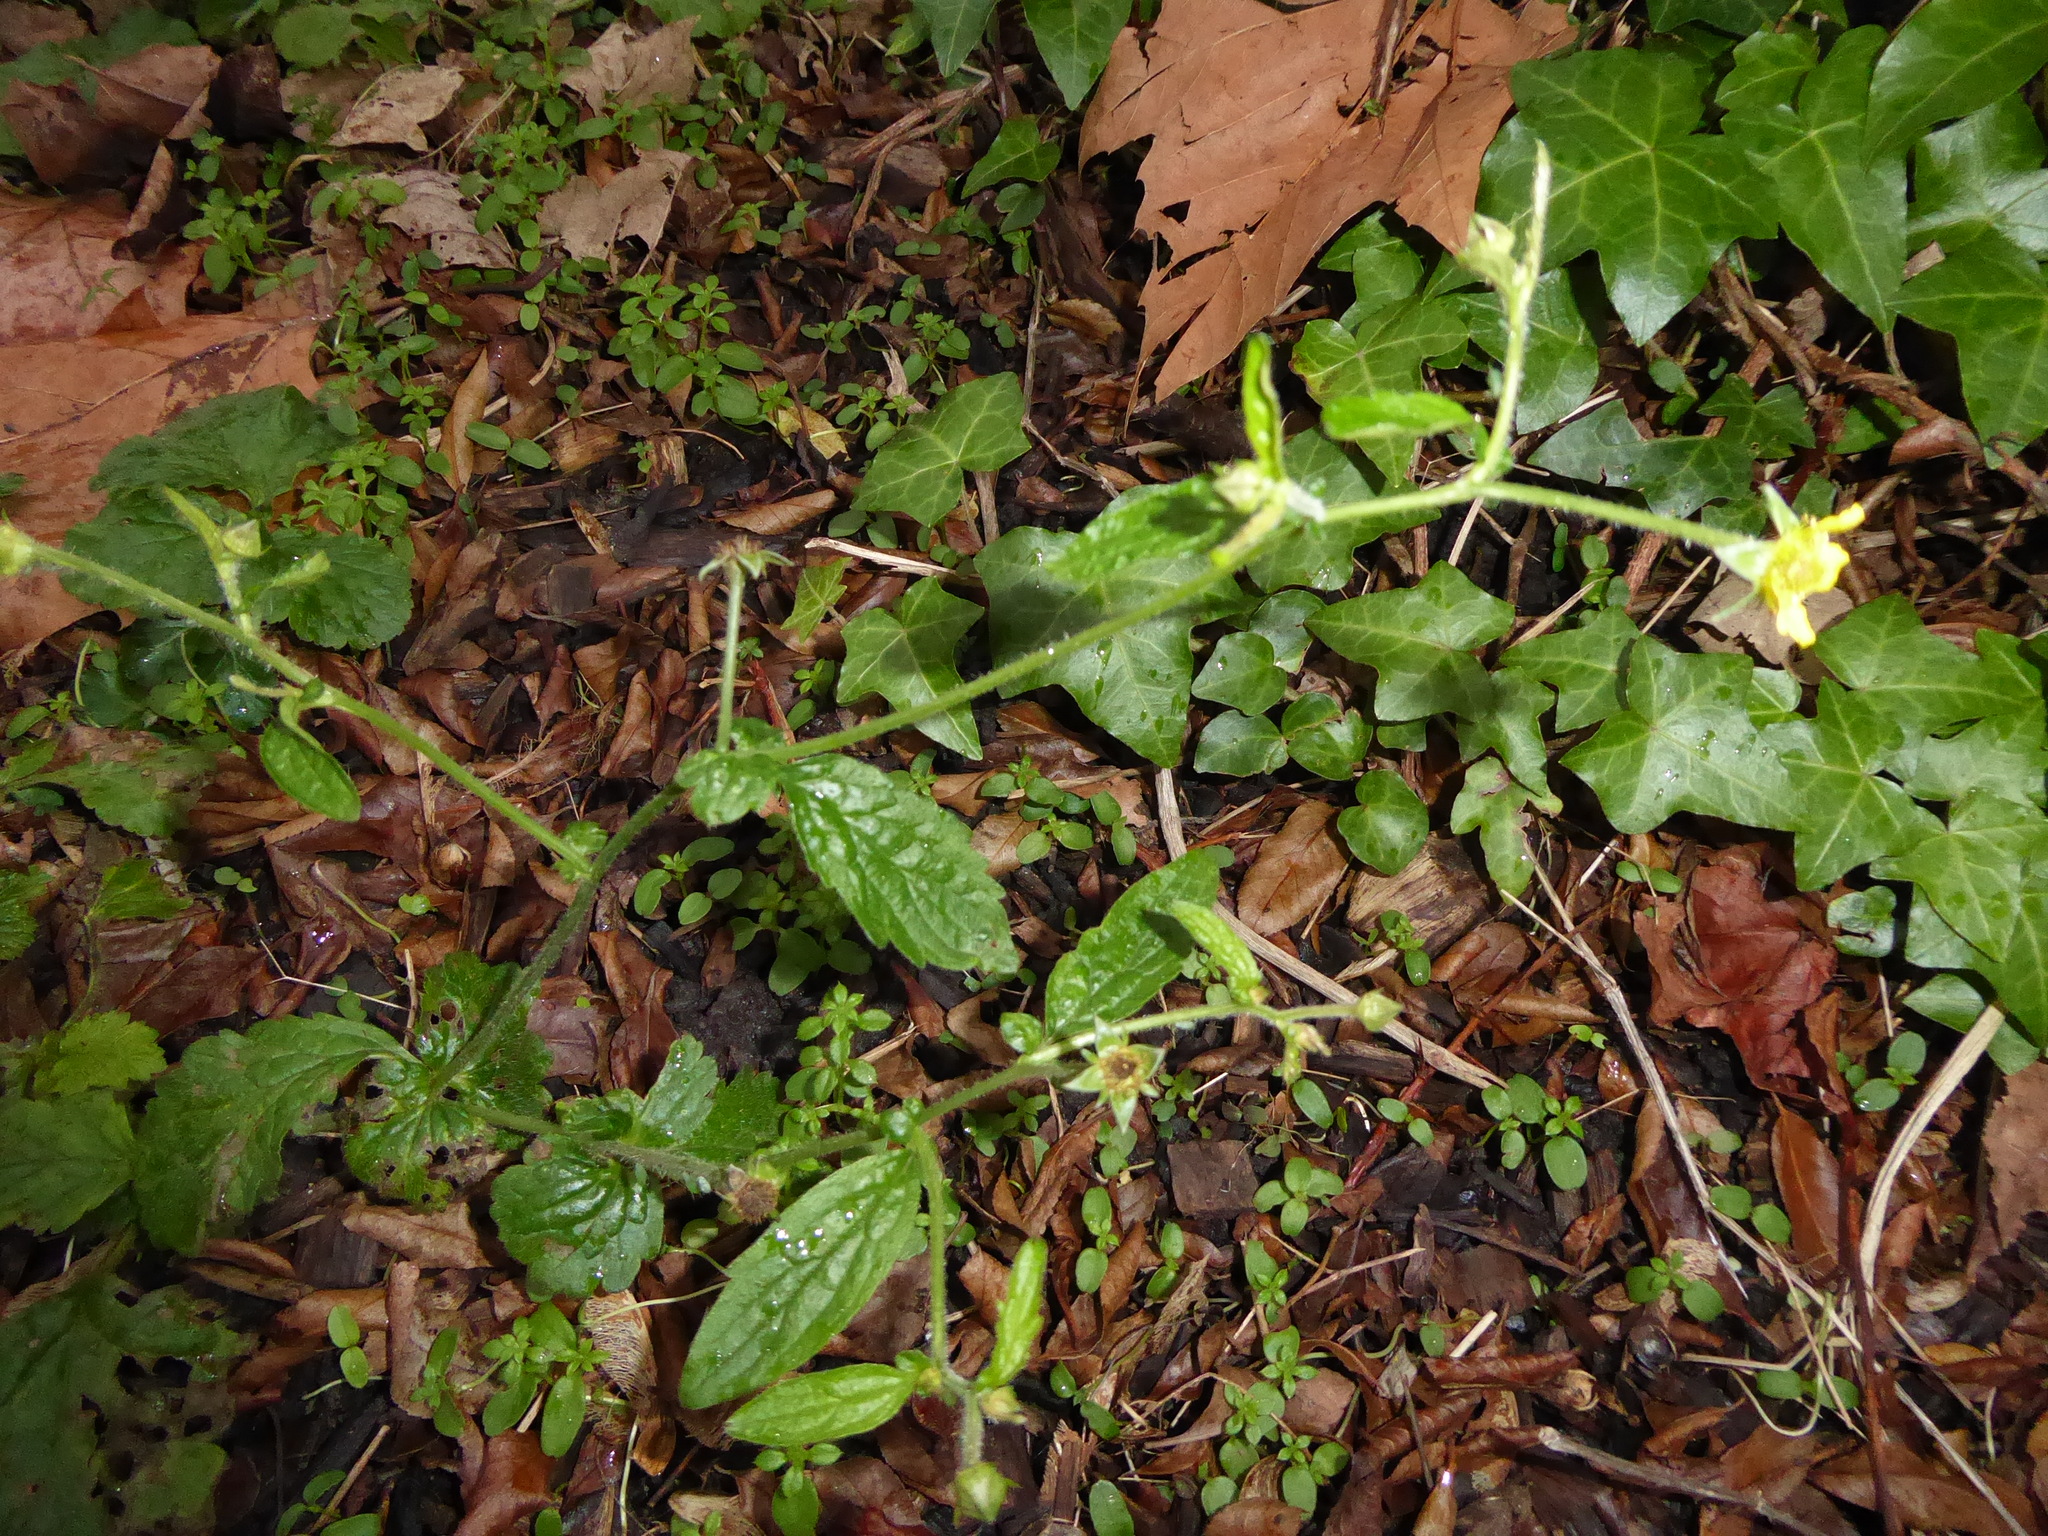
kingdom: Plantae
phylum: Tracheophyta
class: Magnoliopsida
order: Rosales
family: Rosaceae
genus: Geum
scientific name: Geum urbanum
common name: Wood avens
